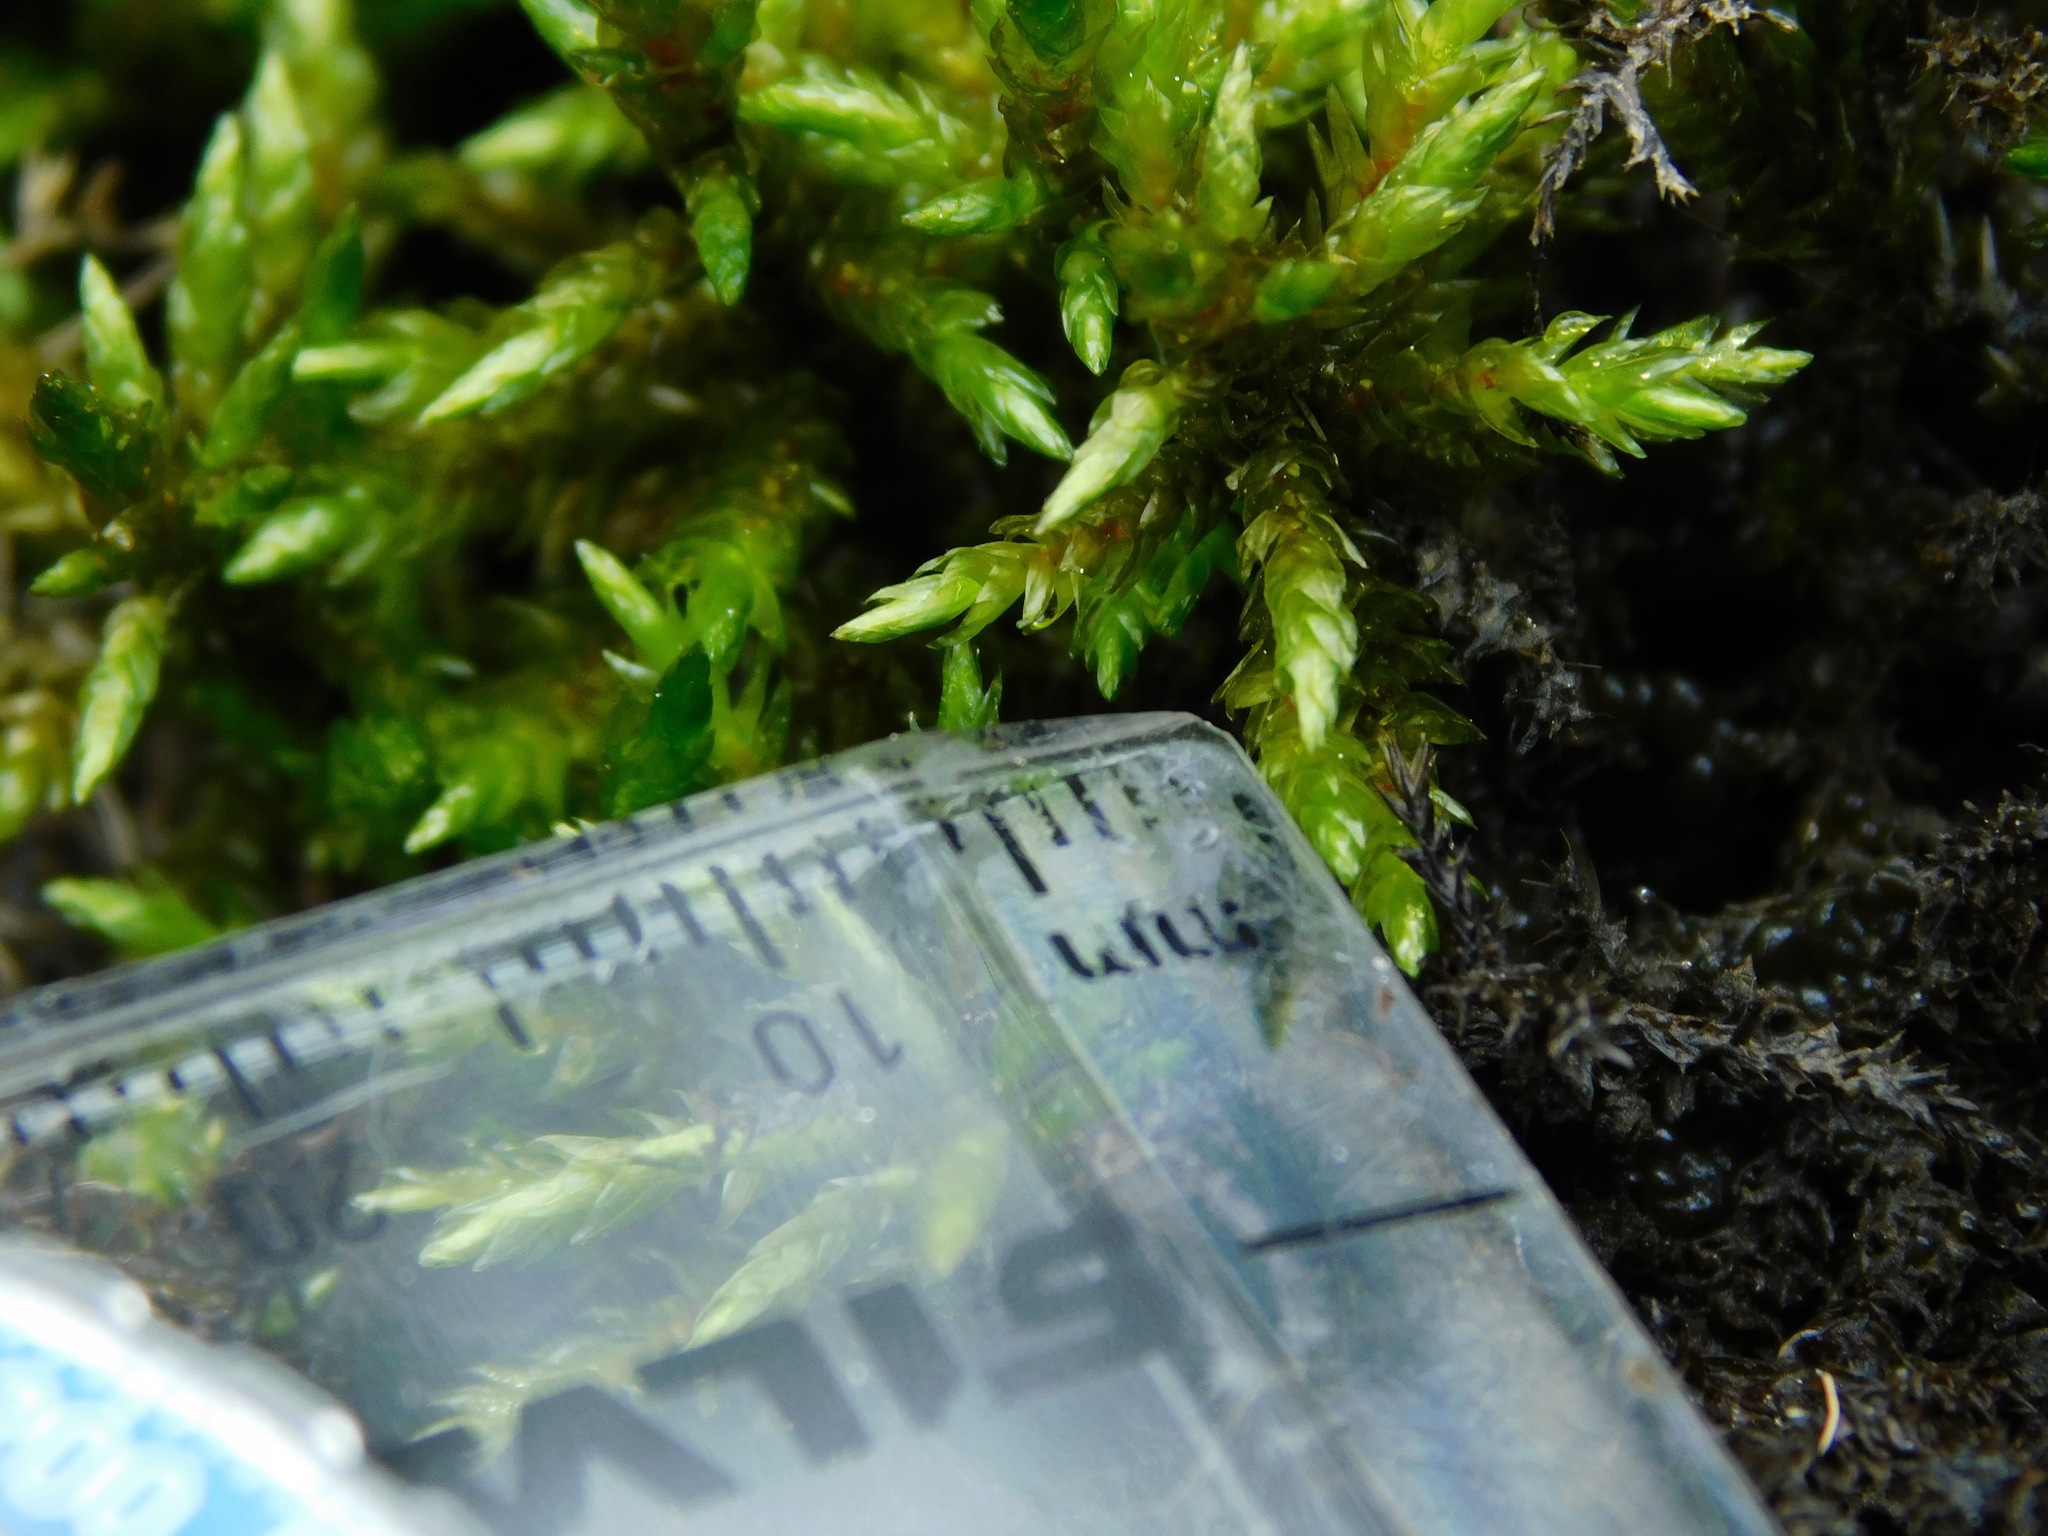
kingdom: Plantae
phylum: Bryophyta
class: Bryopsida
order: Hypnales
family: Brachytheciaceae
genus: Brachythecium
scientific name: Brachythecium rivulare
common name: River ragged moss
